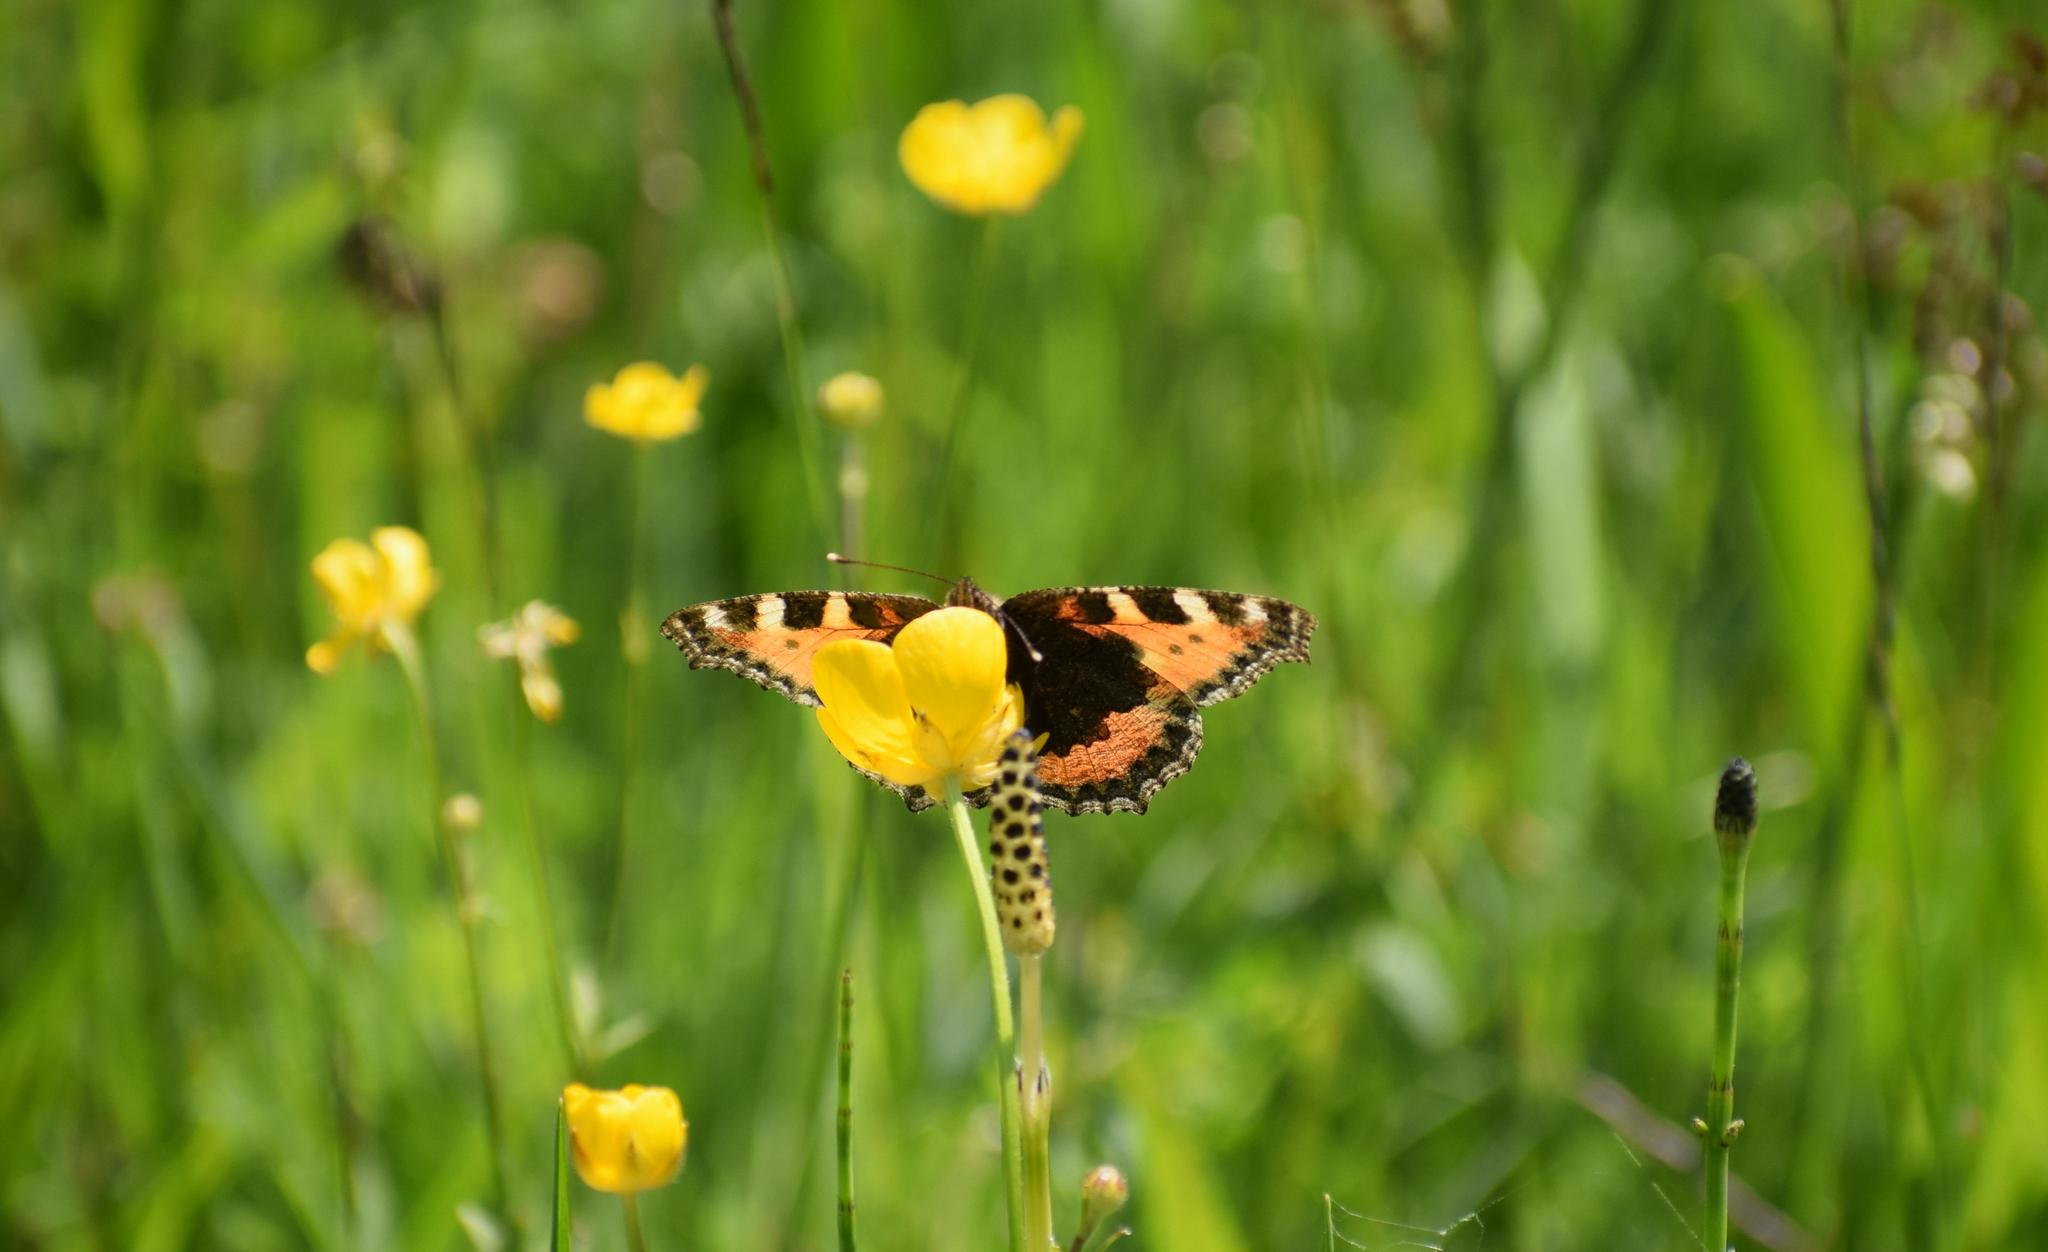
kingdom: Animalia
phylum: Arthropoda
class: Insecta
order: Lepidoptera
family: Nymphalidae
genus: Aglais
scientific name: Aglais urticae
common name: Small tortoiseshell
